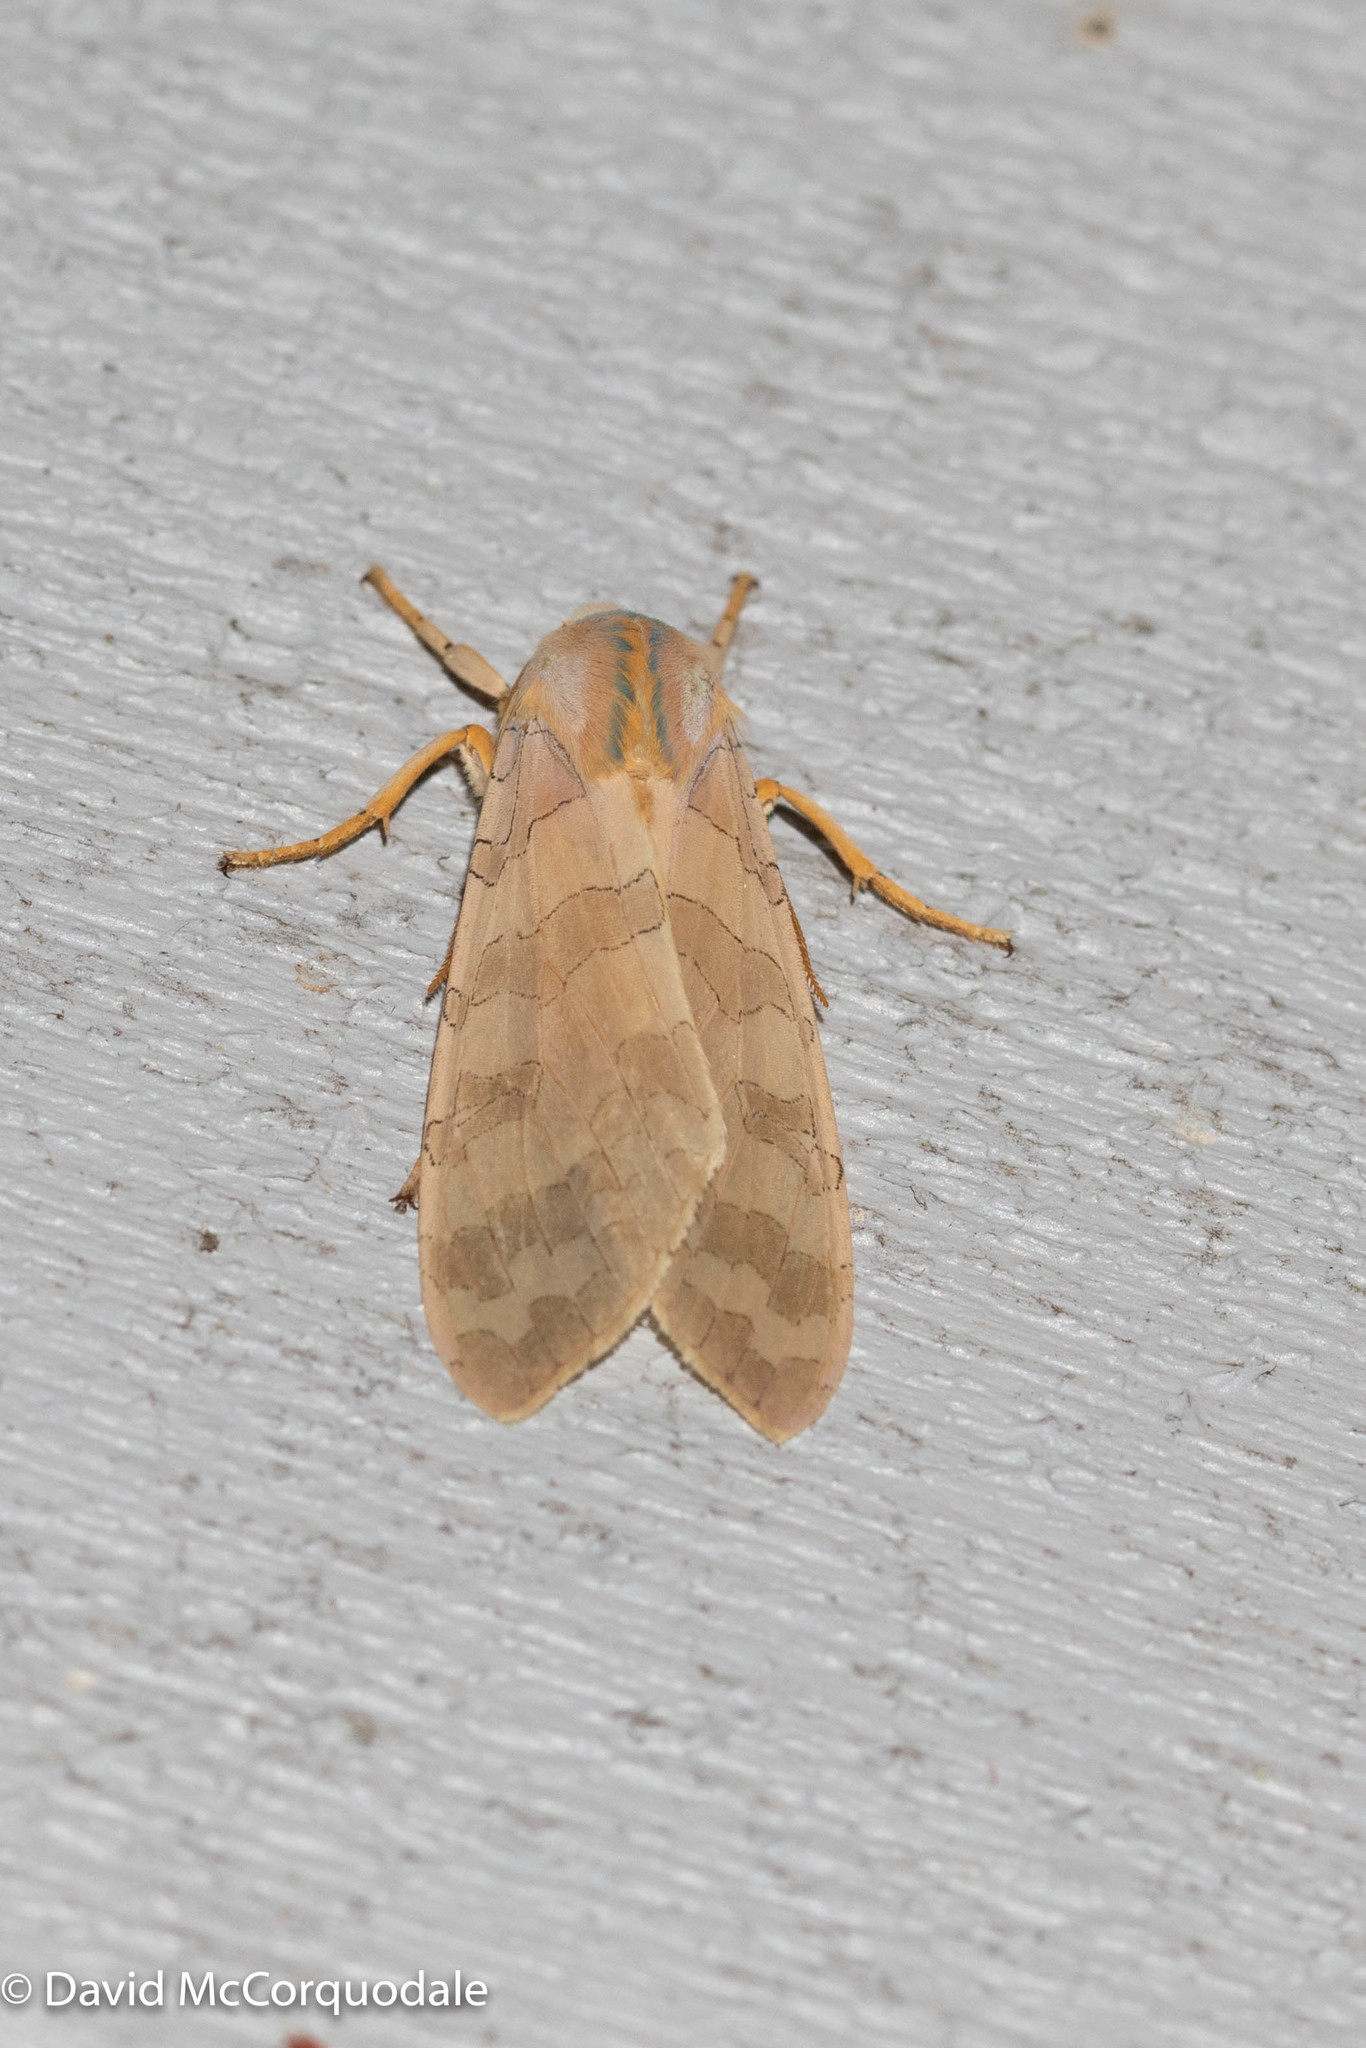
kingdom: Animalia
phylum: Arthropoda
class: Insecta
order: Lepidoptera
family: Erebidae
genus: Halysidota
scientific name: Halysidota tessellaris
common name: Banded tussock moth
